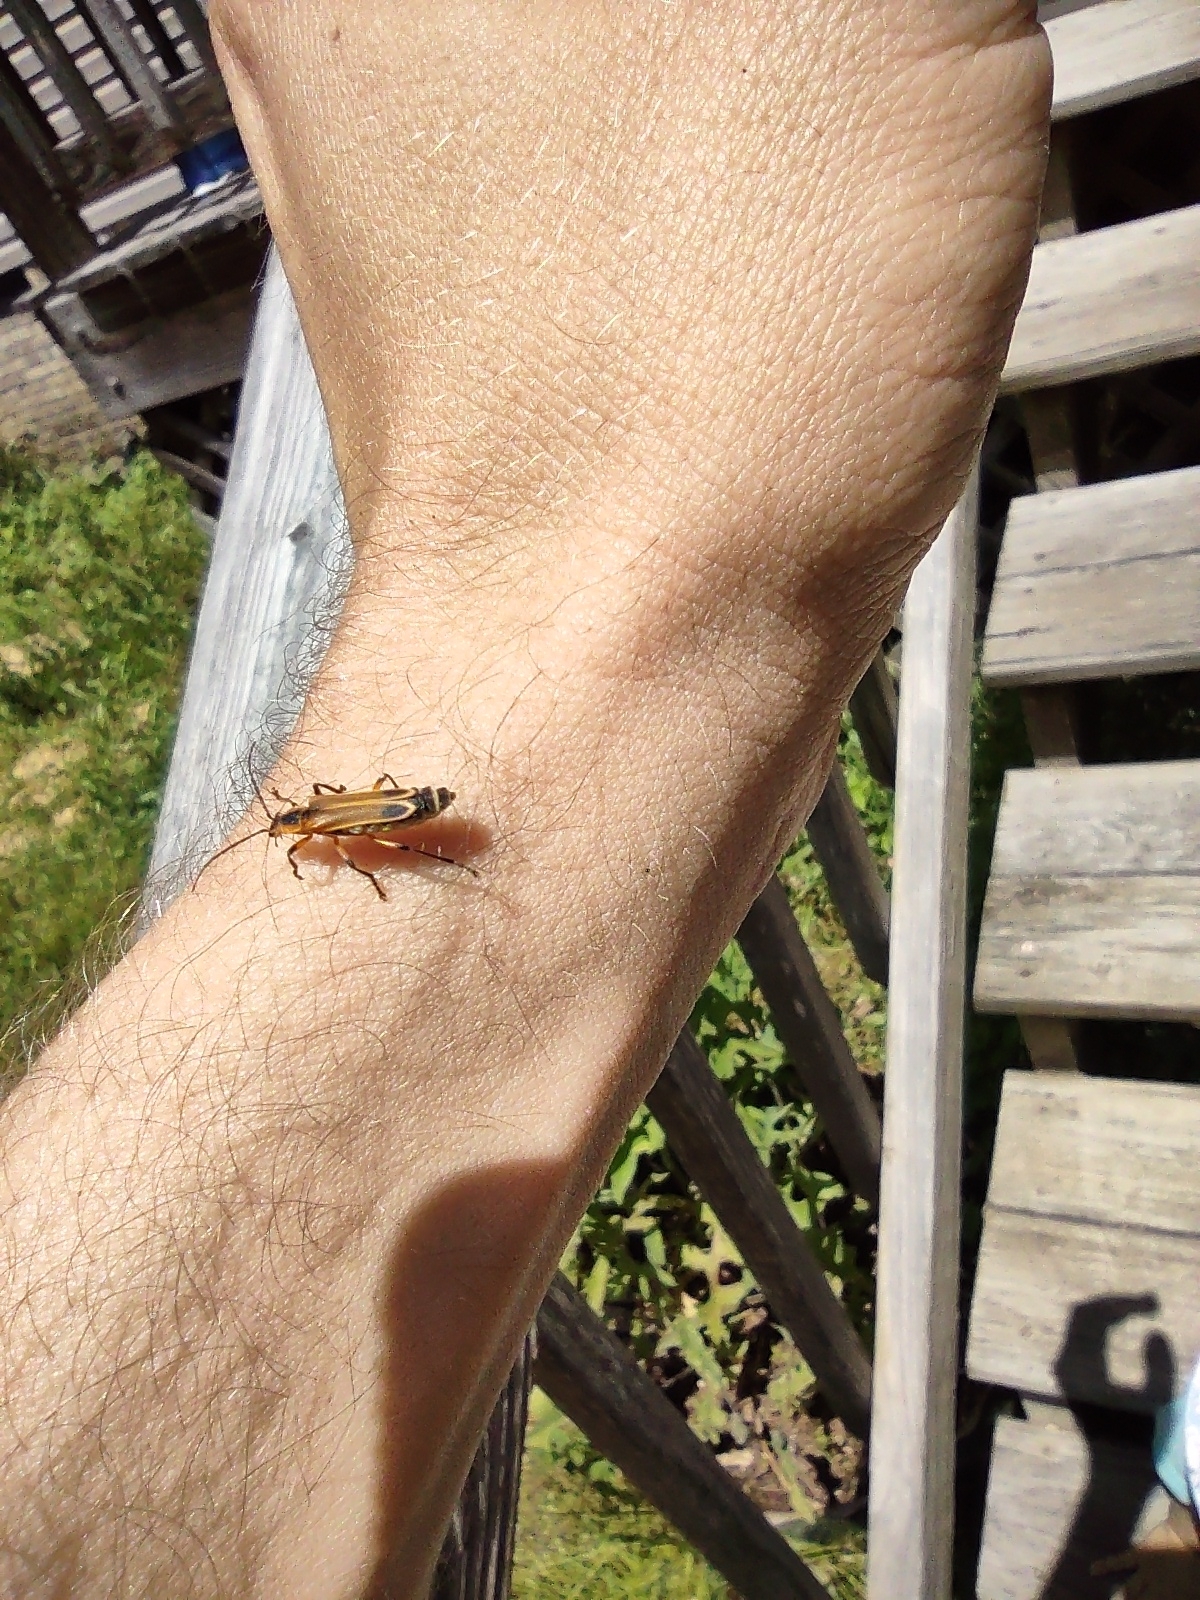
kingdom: Animalia
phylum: Arthropoda
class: Insecta
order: Coleoptera
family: Cantharidae
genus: Chauliognathus
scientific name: Chauliognathus marginatus
